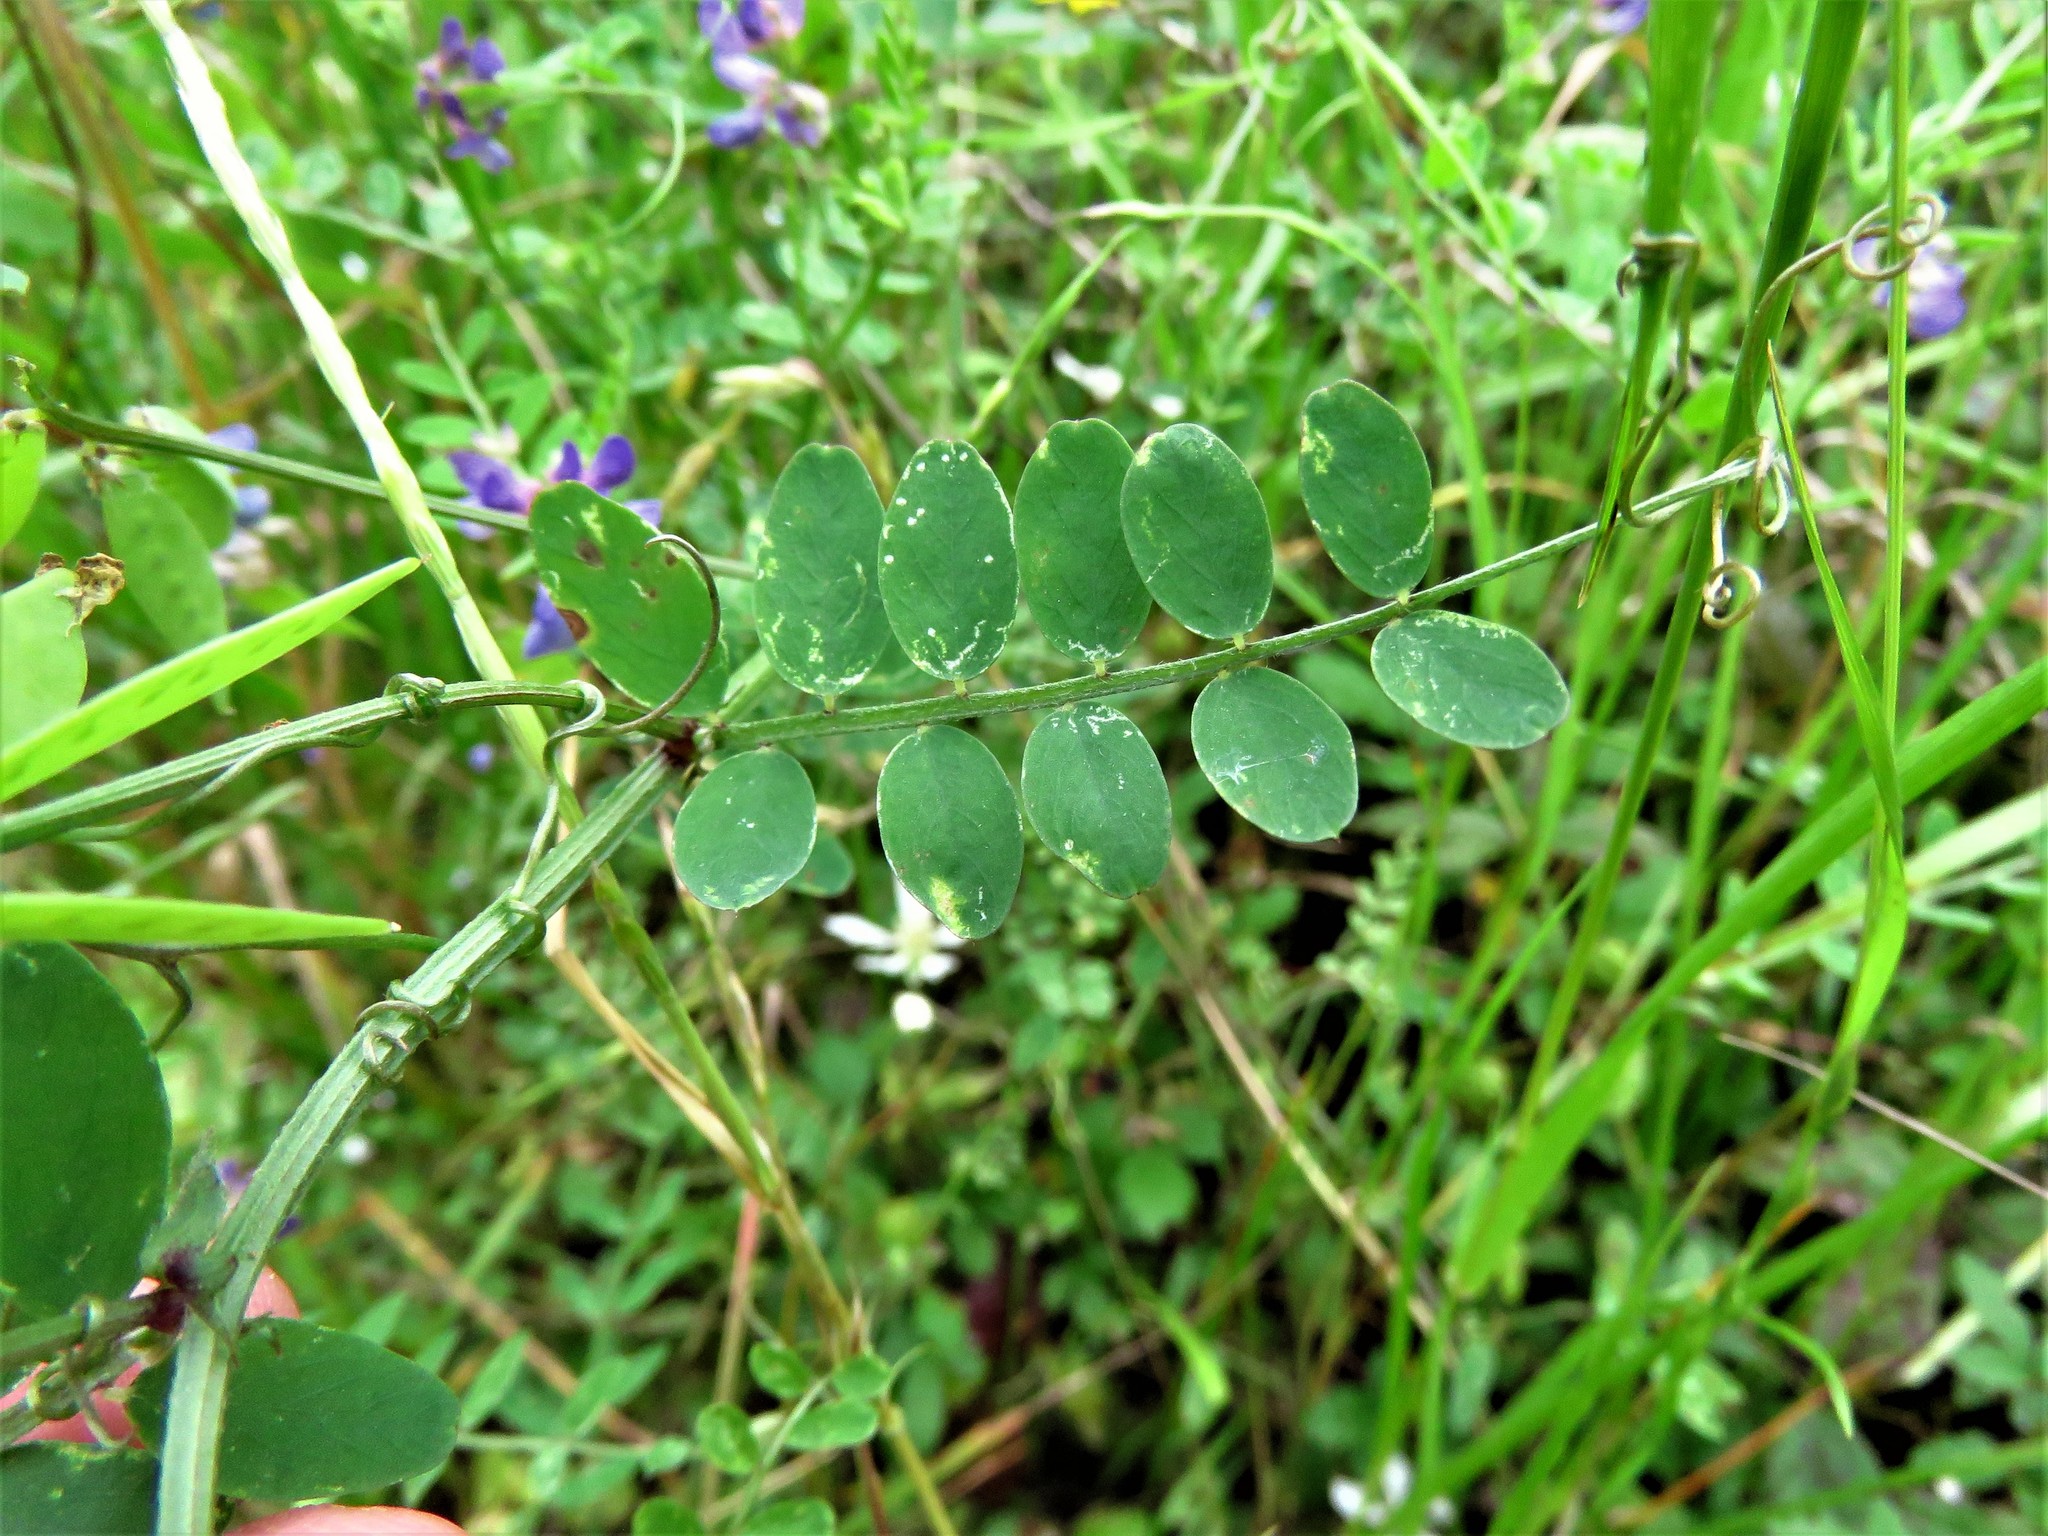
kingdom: Plantae
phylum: Tracheophyta
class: Magnoliopsida
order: Fabales
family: Fabaceae
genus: Vicia
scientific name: Vicia ludoviciana
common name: Louisiana vetch
